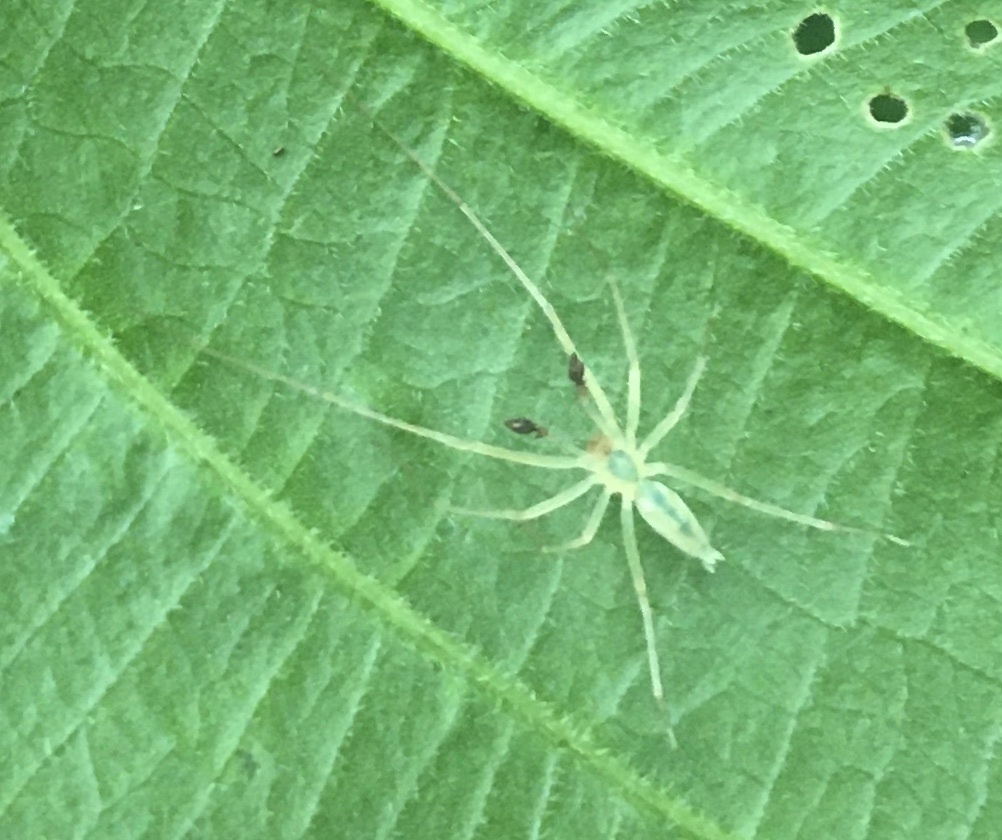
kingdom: Animalia
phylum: Arthropoda
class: Arachnida
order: Araneae
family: Anyphaenidae
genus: Wulfila
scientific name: Wulfila albens
